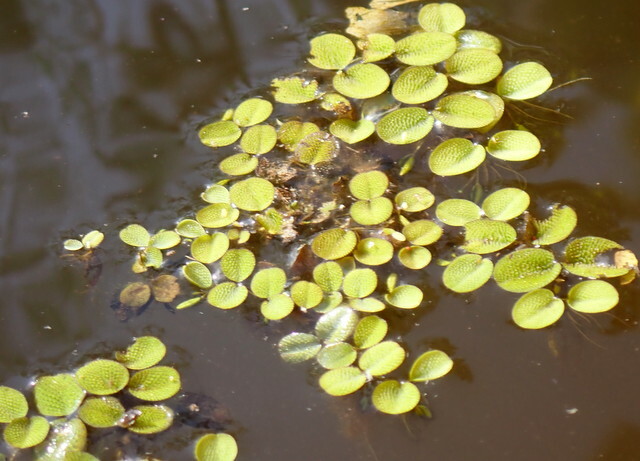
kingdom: Plantae
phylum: Tracheophyta
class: Polypodiopsida
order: Salviniales
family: Salviniaceae
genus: Salvinia
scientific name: Salvinia minima
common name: Water spangles
